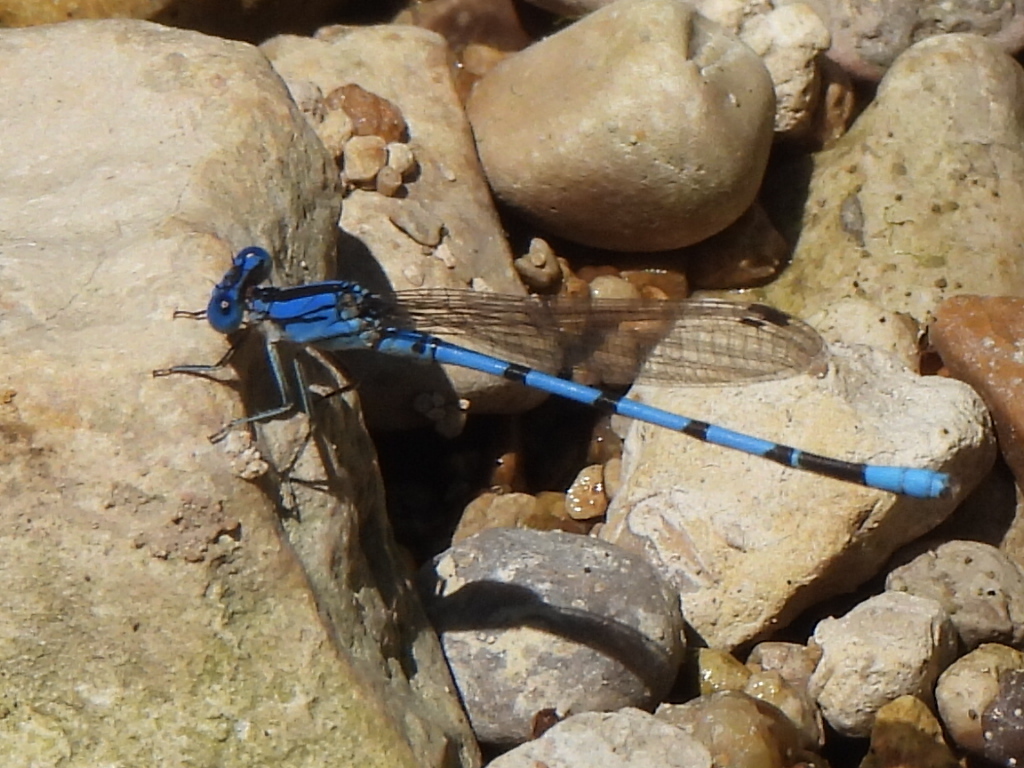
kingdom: Animalia
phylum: Arthropoda
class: Insecta
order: Odonata
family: Coenagrionidae
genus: Argia
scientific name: Argia nahuana
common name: Aztec dancer
